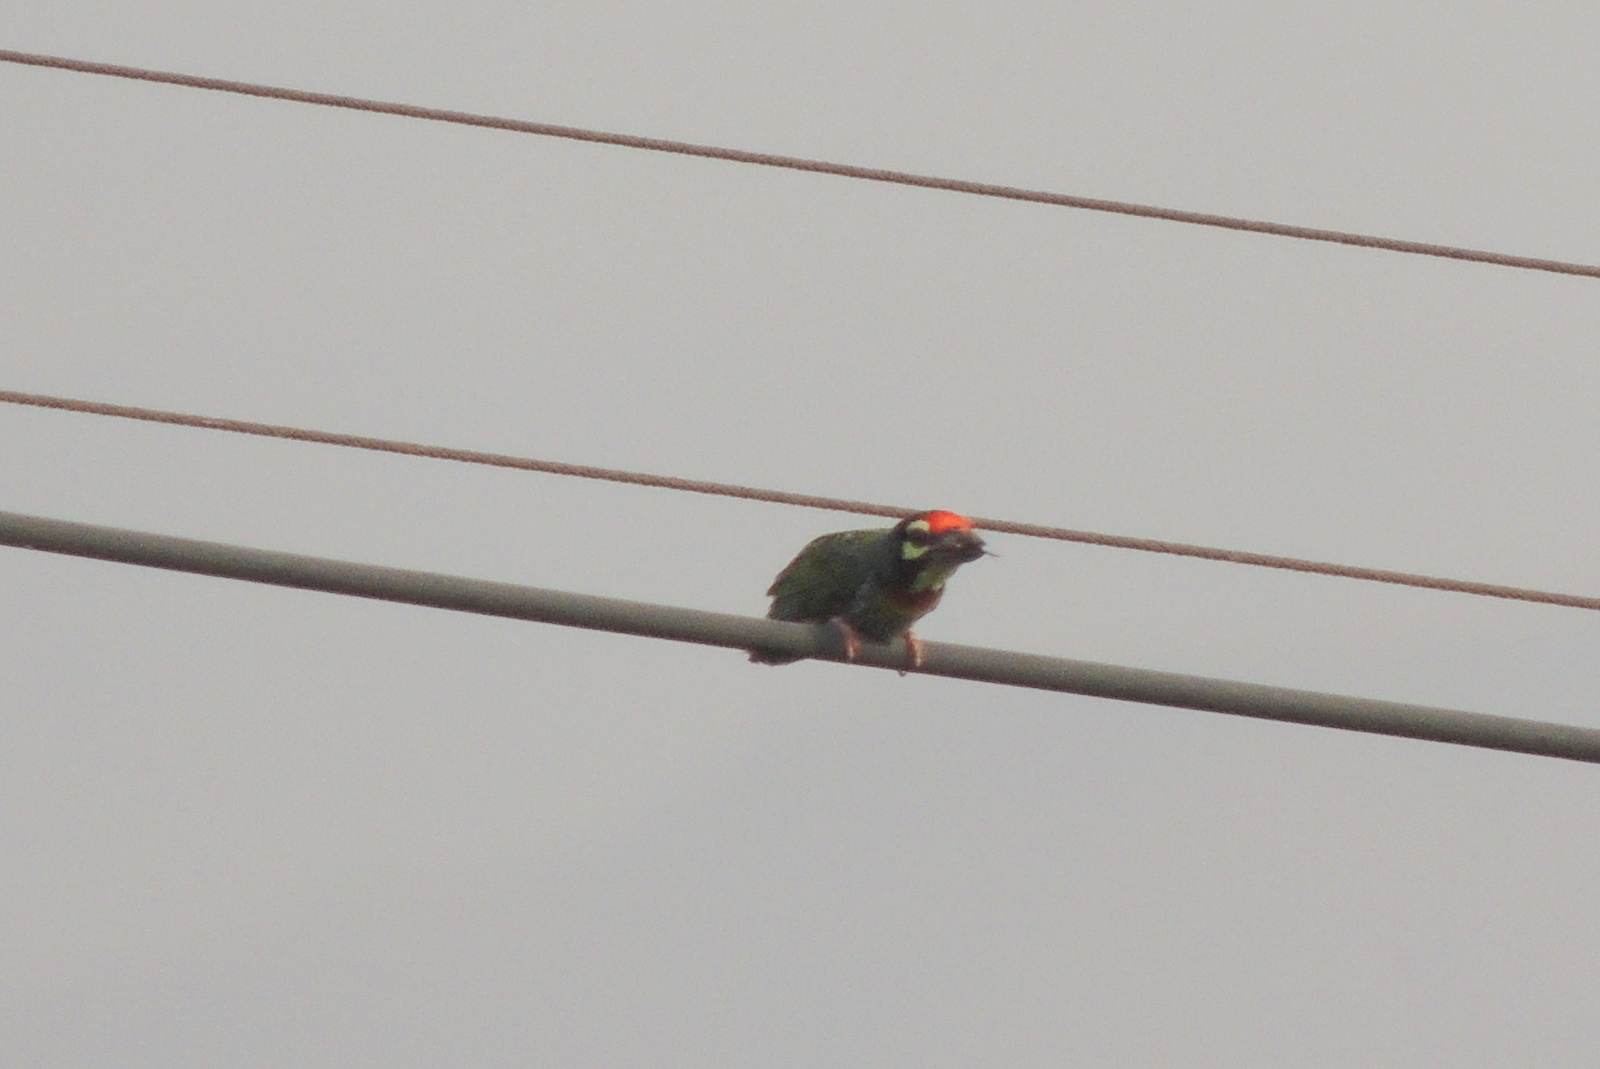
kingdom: Animalia
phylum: Chordata
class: Aves
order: Piciformes
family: Megalaimidae
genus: Psilopogon
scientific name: Psilopogon haemacephalus
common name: Coppersmith barbet
